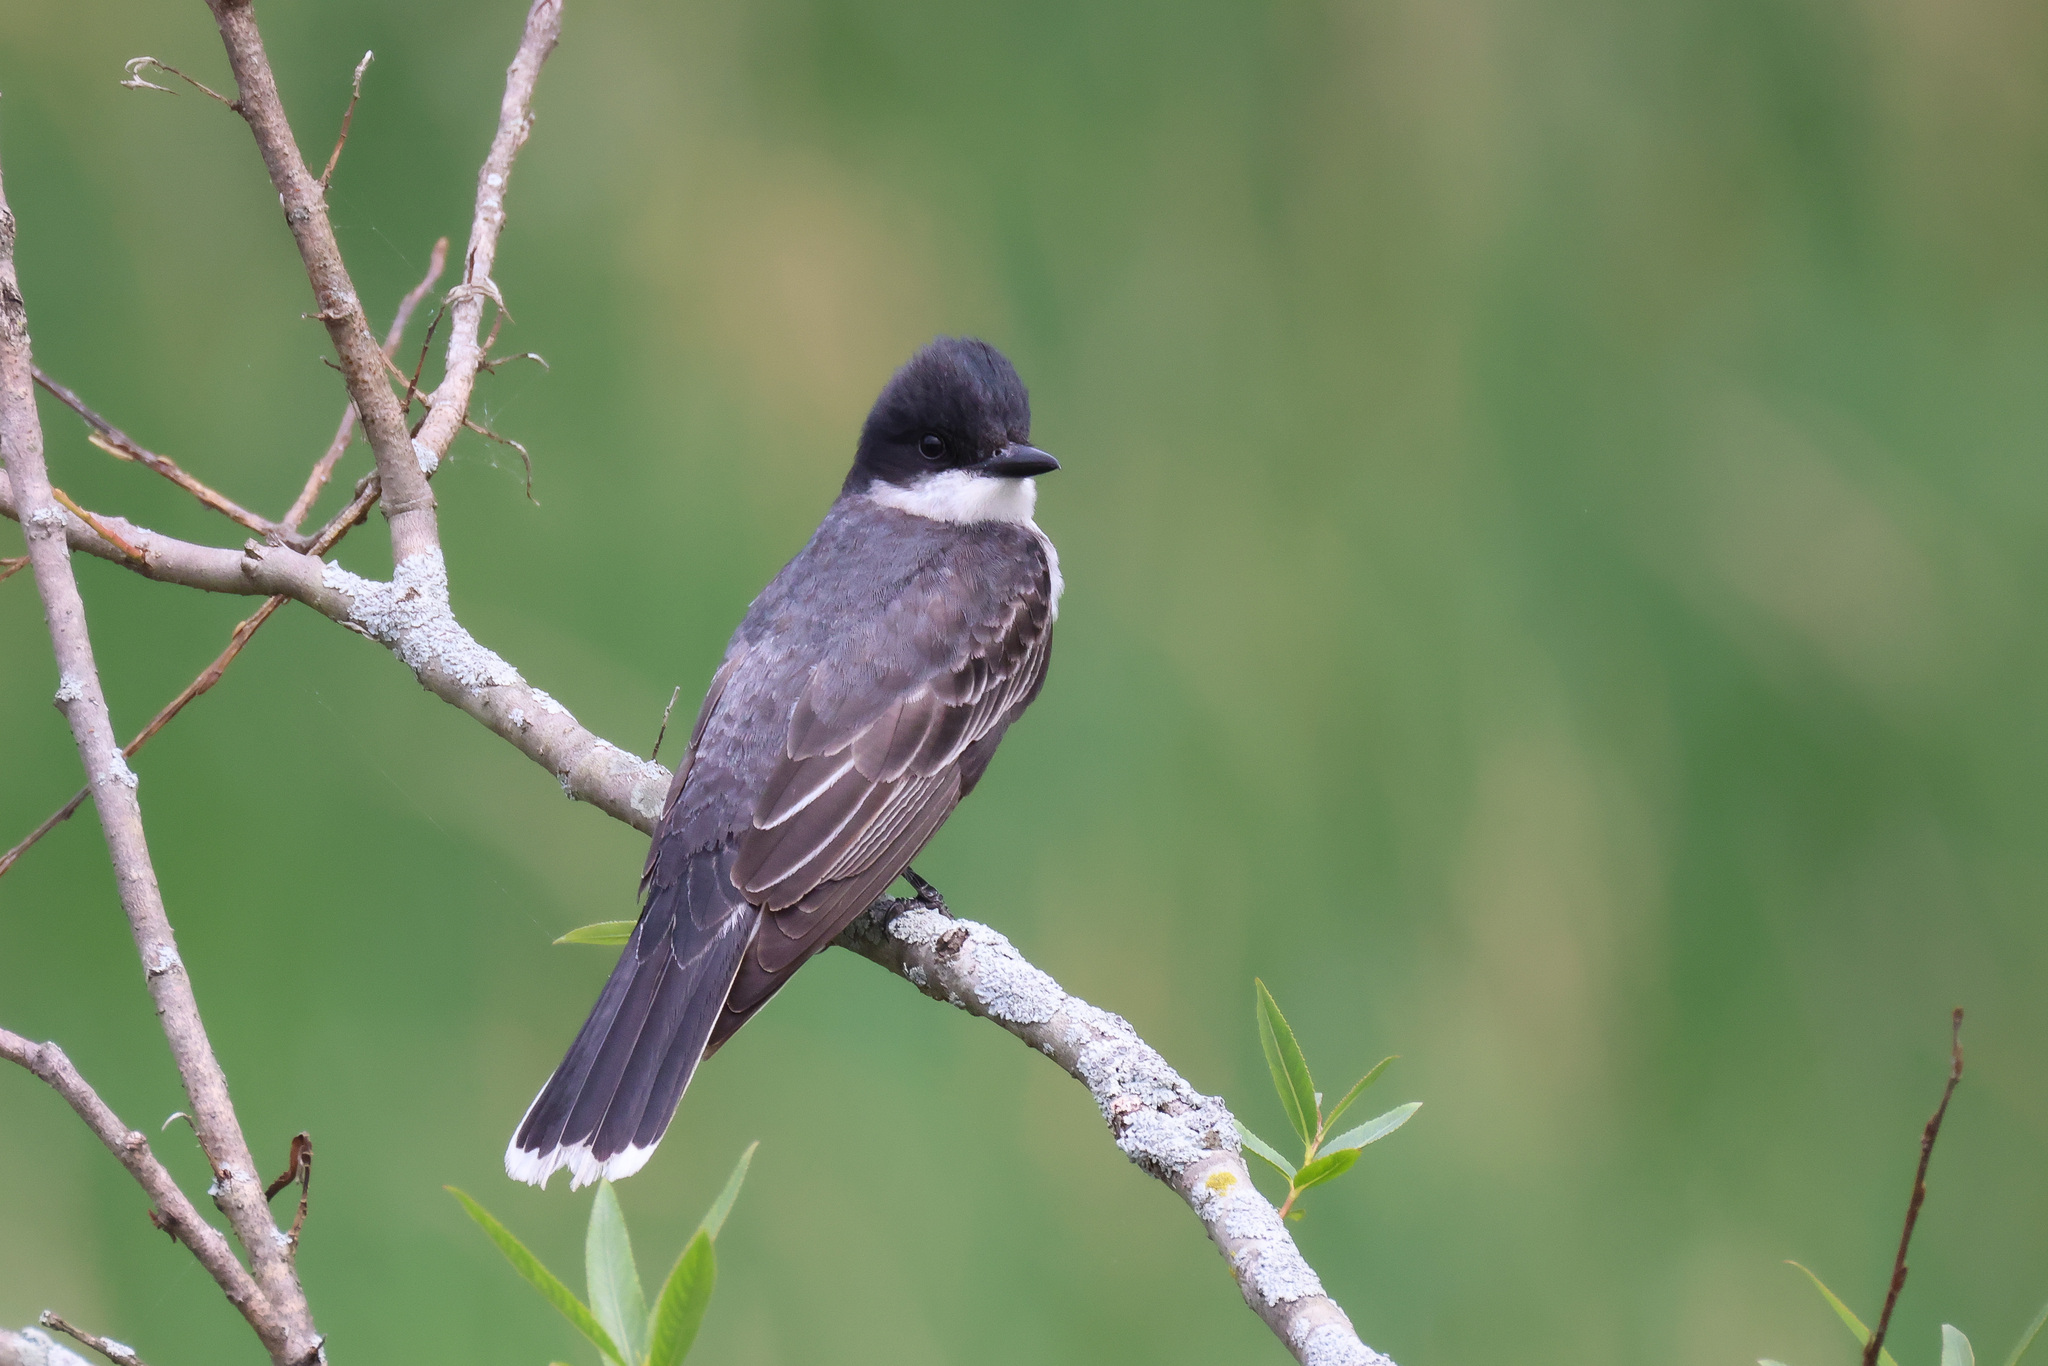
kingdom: Animalia
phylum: Chordata
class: Aves
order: Passeriformes
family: Tyrannidae
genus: Tyrannus
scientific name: Tyrannus tyrannus
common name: Eastern kingbird
